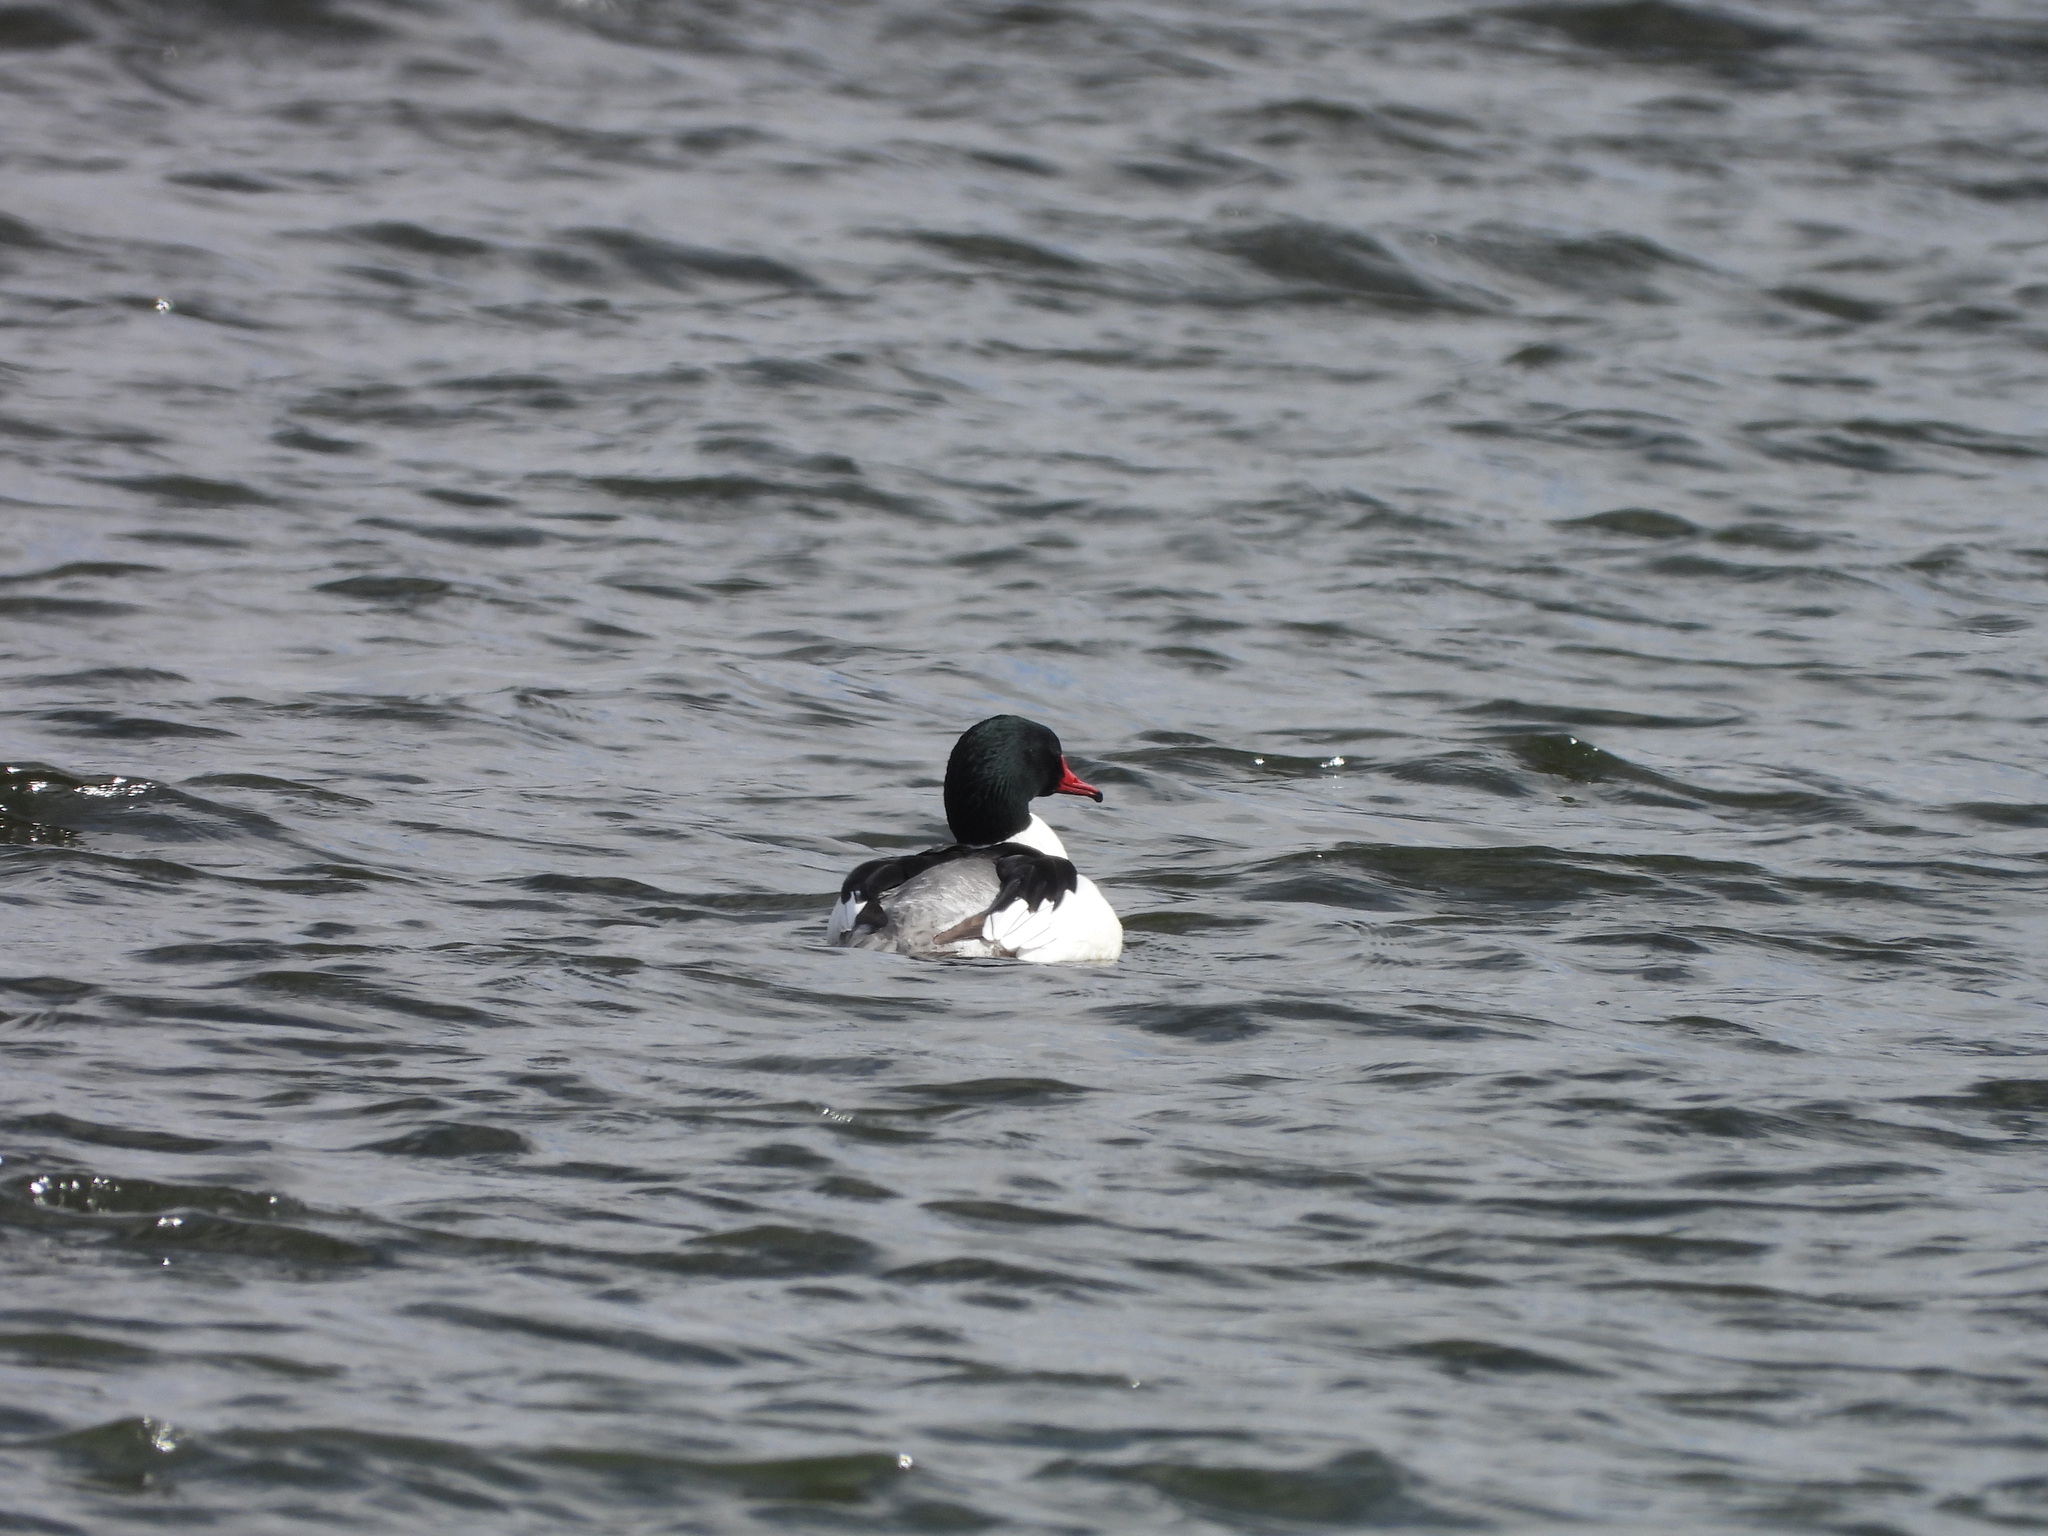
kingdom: Animalia
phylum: Chordata
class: Aves
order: Anseriformes
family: Anatidae
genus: Mergus
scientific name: Mergus merganser
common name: Common merganser
